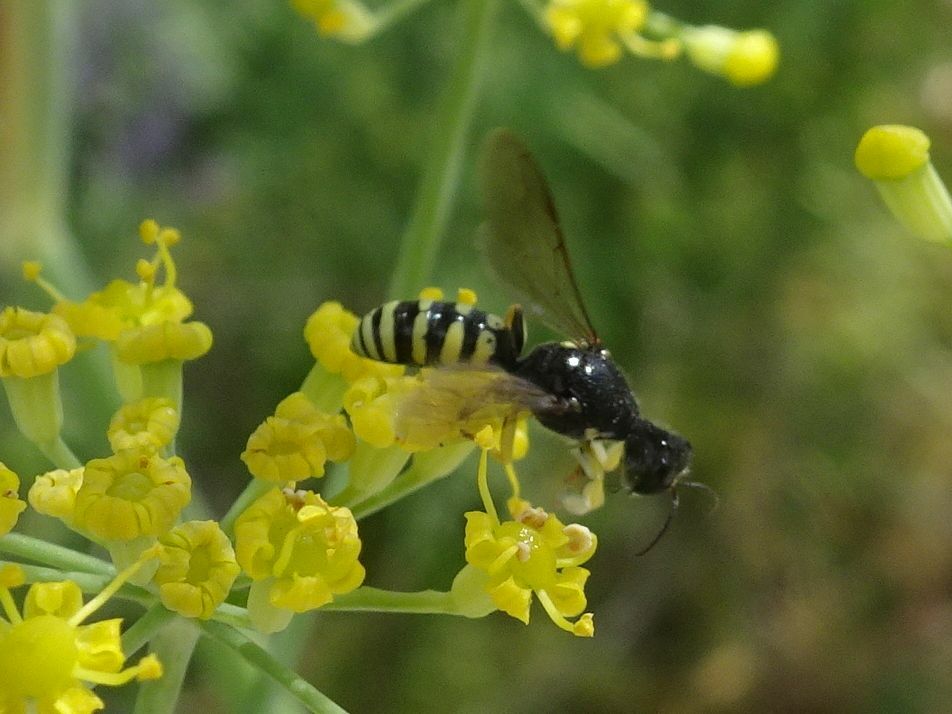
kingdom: Animalia
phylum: Arthropoda
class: Insecta
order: Hymenoptera
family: Crabronidae
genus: Lestica
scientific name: Lestica clypeata
